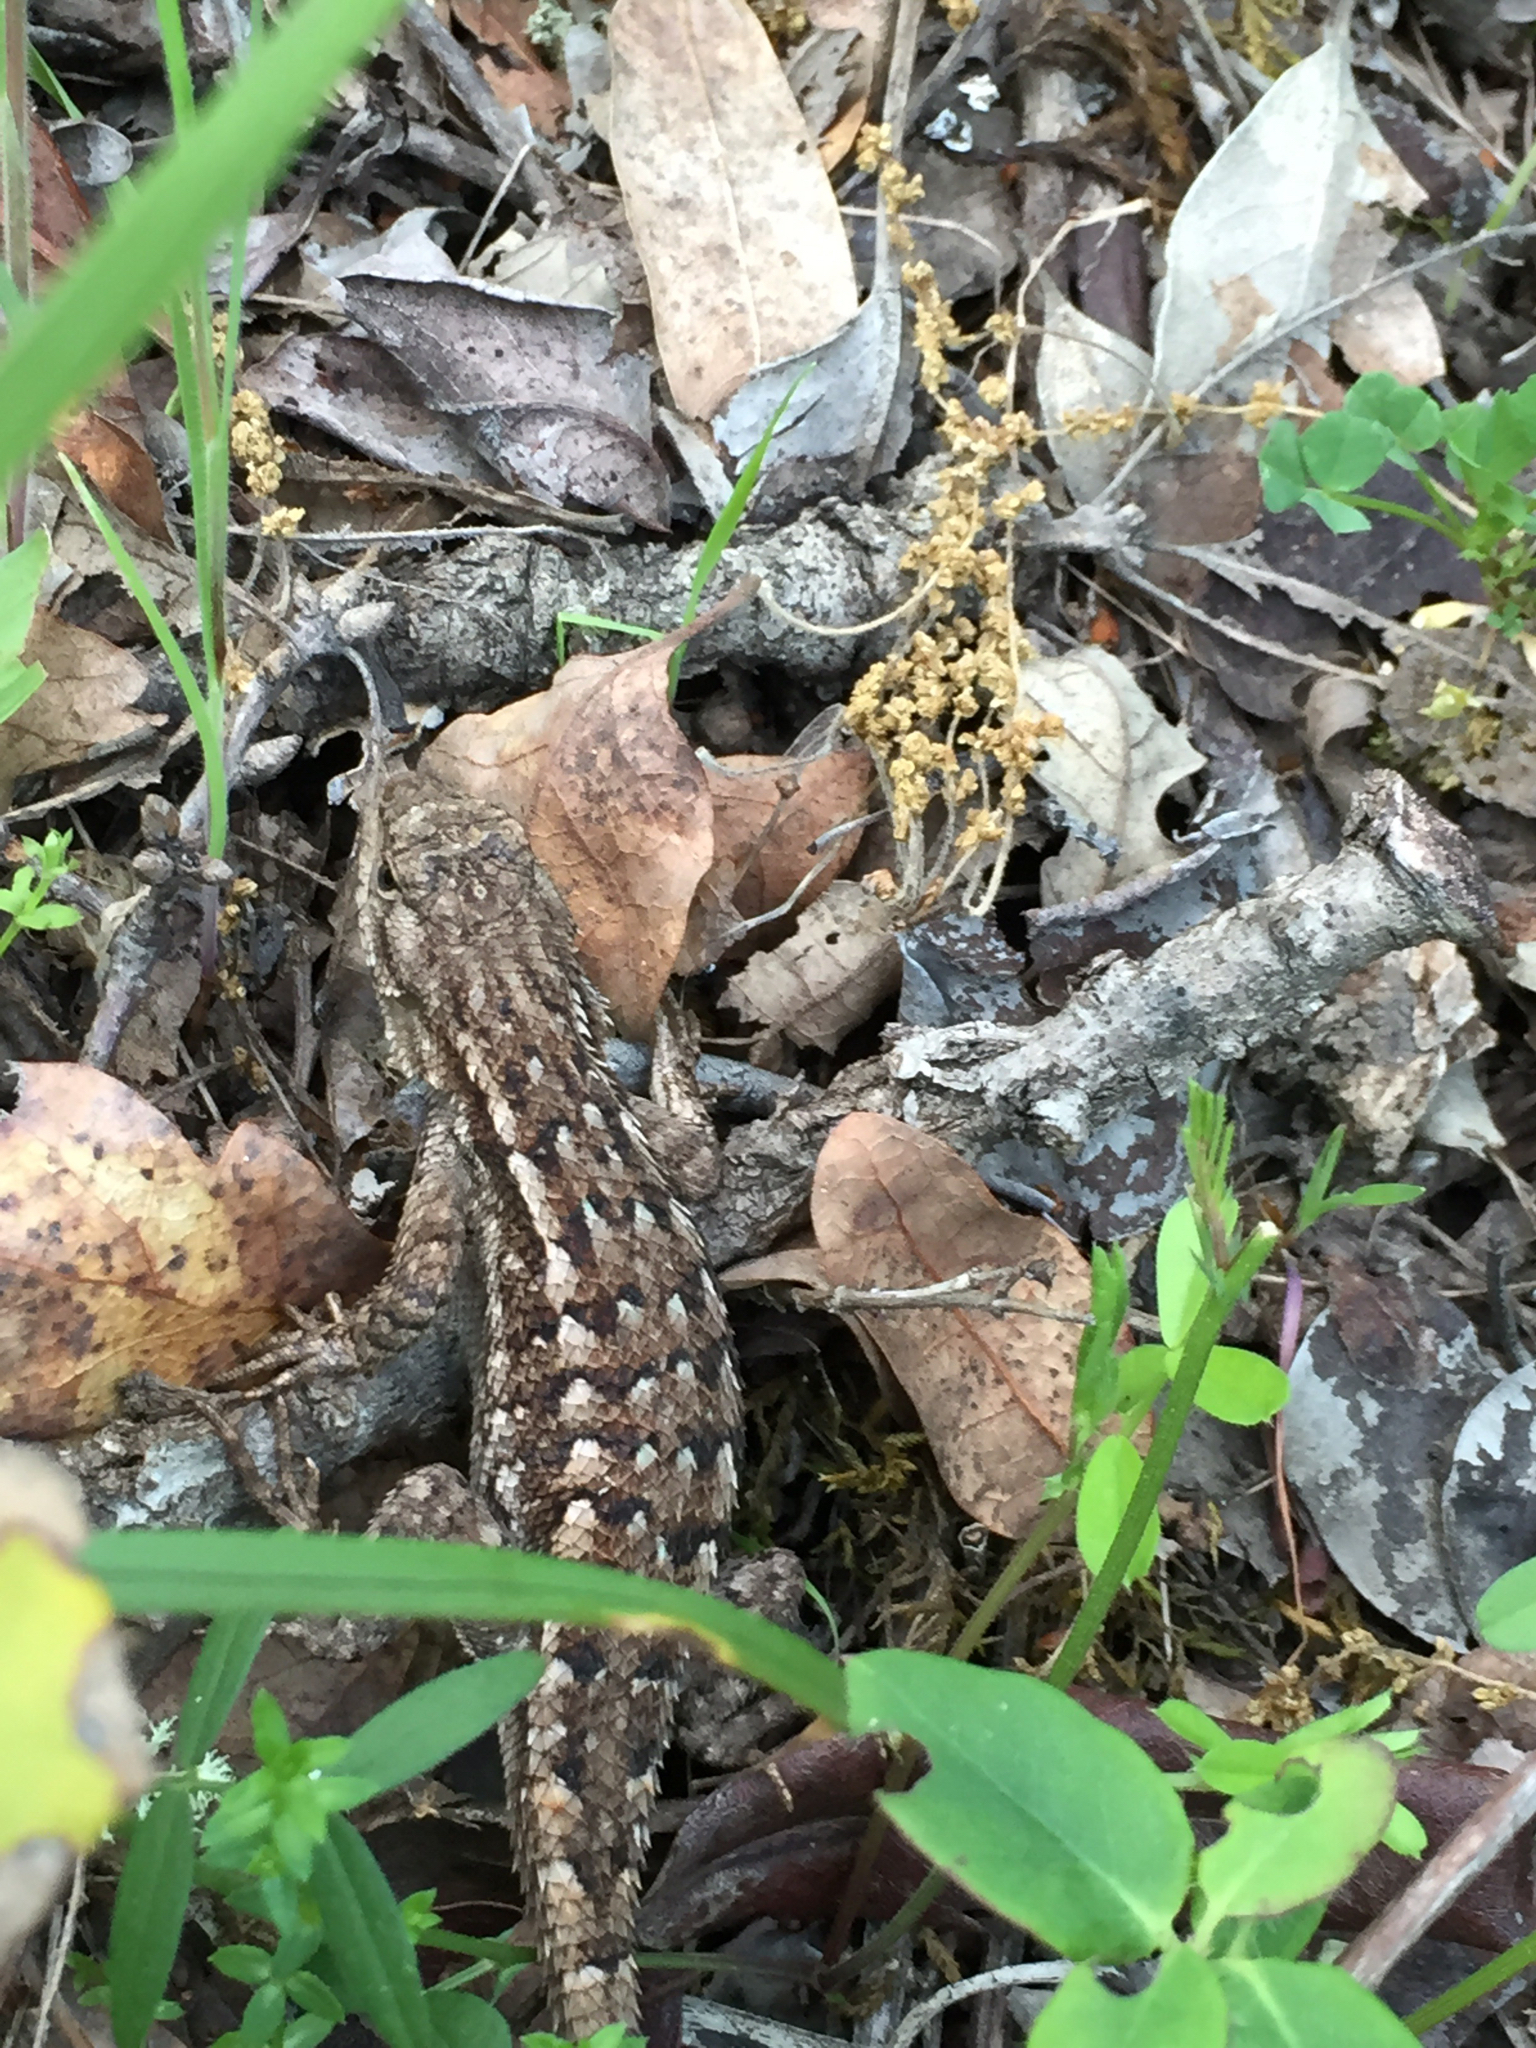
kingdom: Animalia
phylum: Chordata
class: Squamata
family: Phrynosomatidae
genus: Sceloporus
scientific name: Sceloporus occidentalis
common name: Western fence lizard
